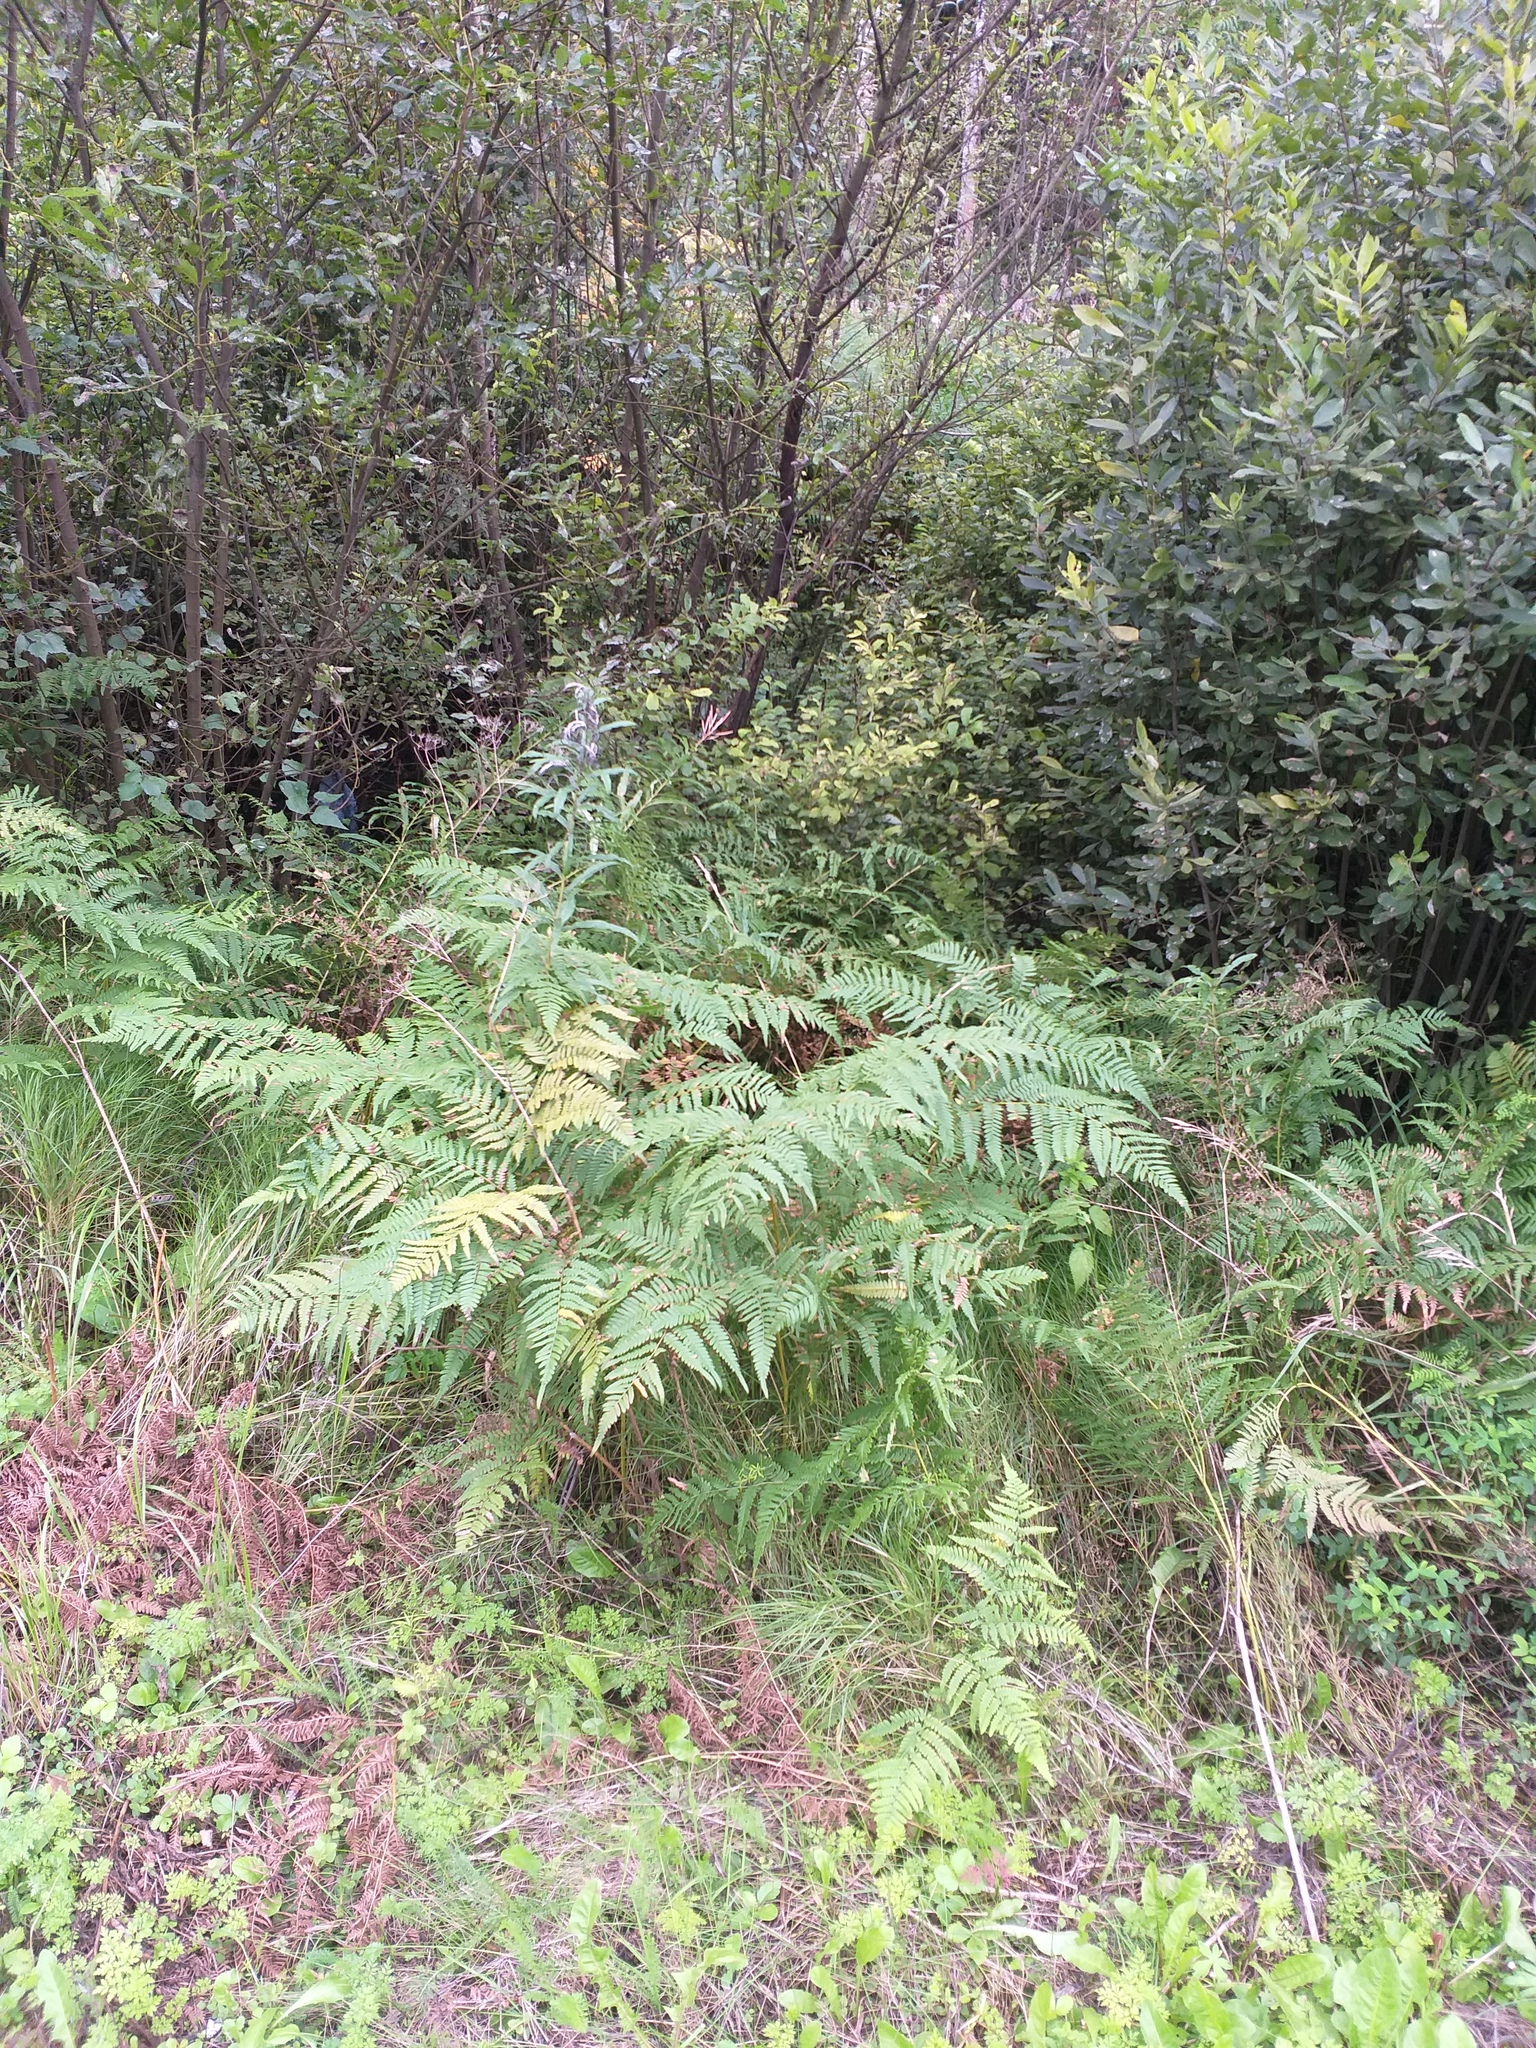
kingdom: Plantae
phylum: Tracheophyta
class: Polypodiopsida
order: Polypodiales
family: Dennstaedtiaceae
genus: Pteridium
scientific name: Pteridium aquilinum
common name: Bracken
